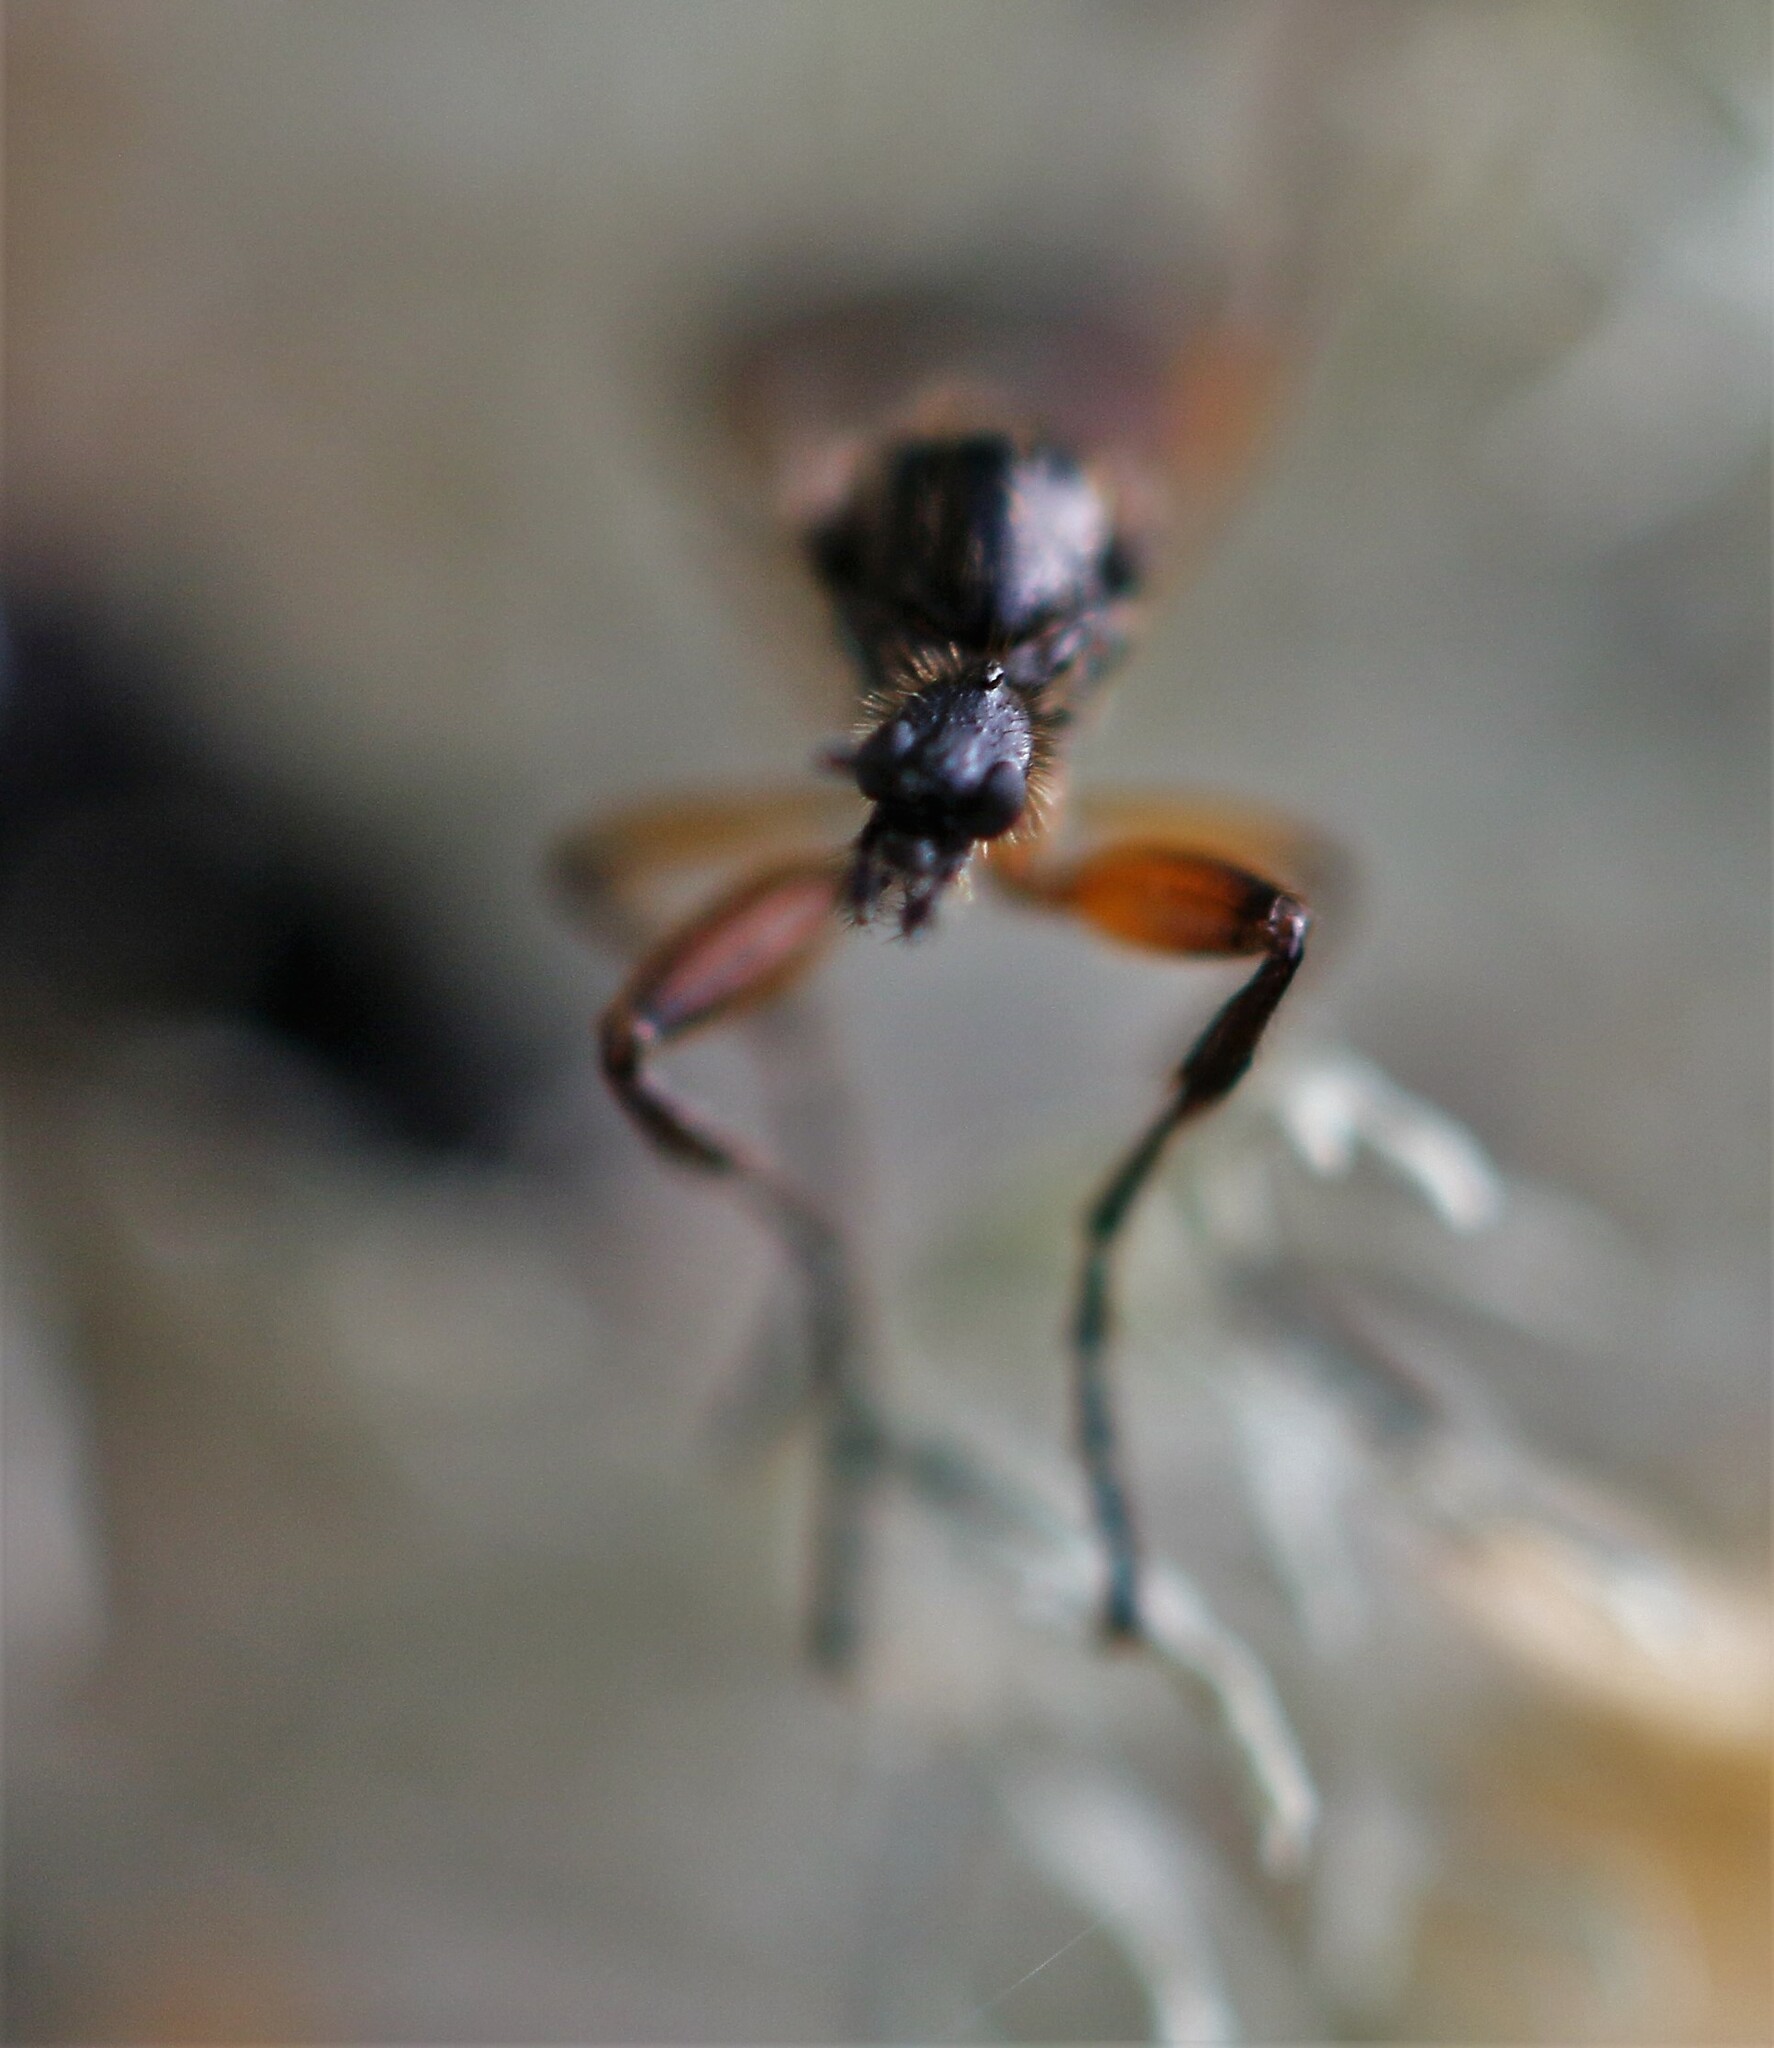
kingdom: Animalia
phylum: Arthropoda
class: Insecta
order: Diptera
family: Bibionidae
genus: Bibio
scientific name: Bibio slossonae
